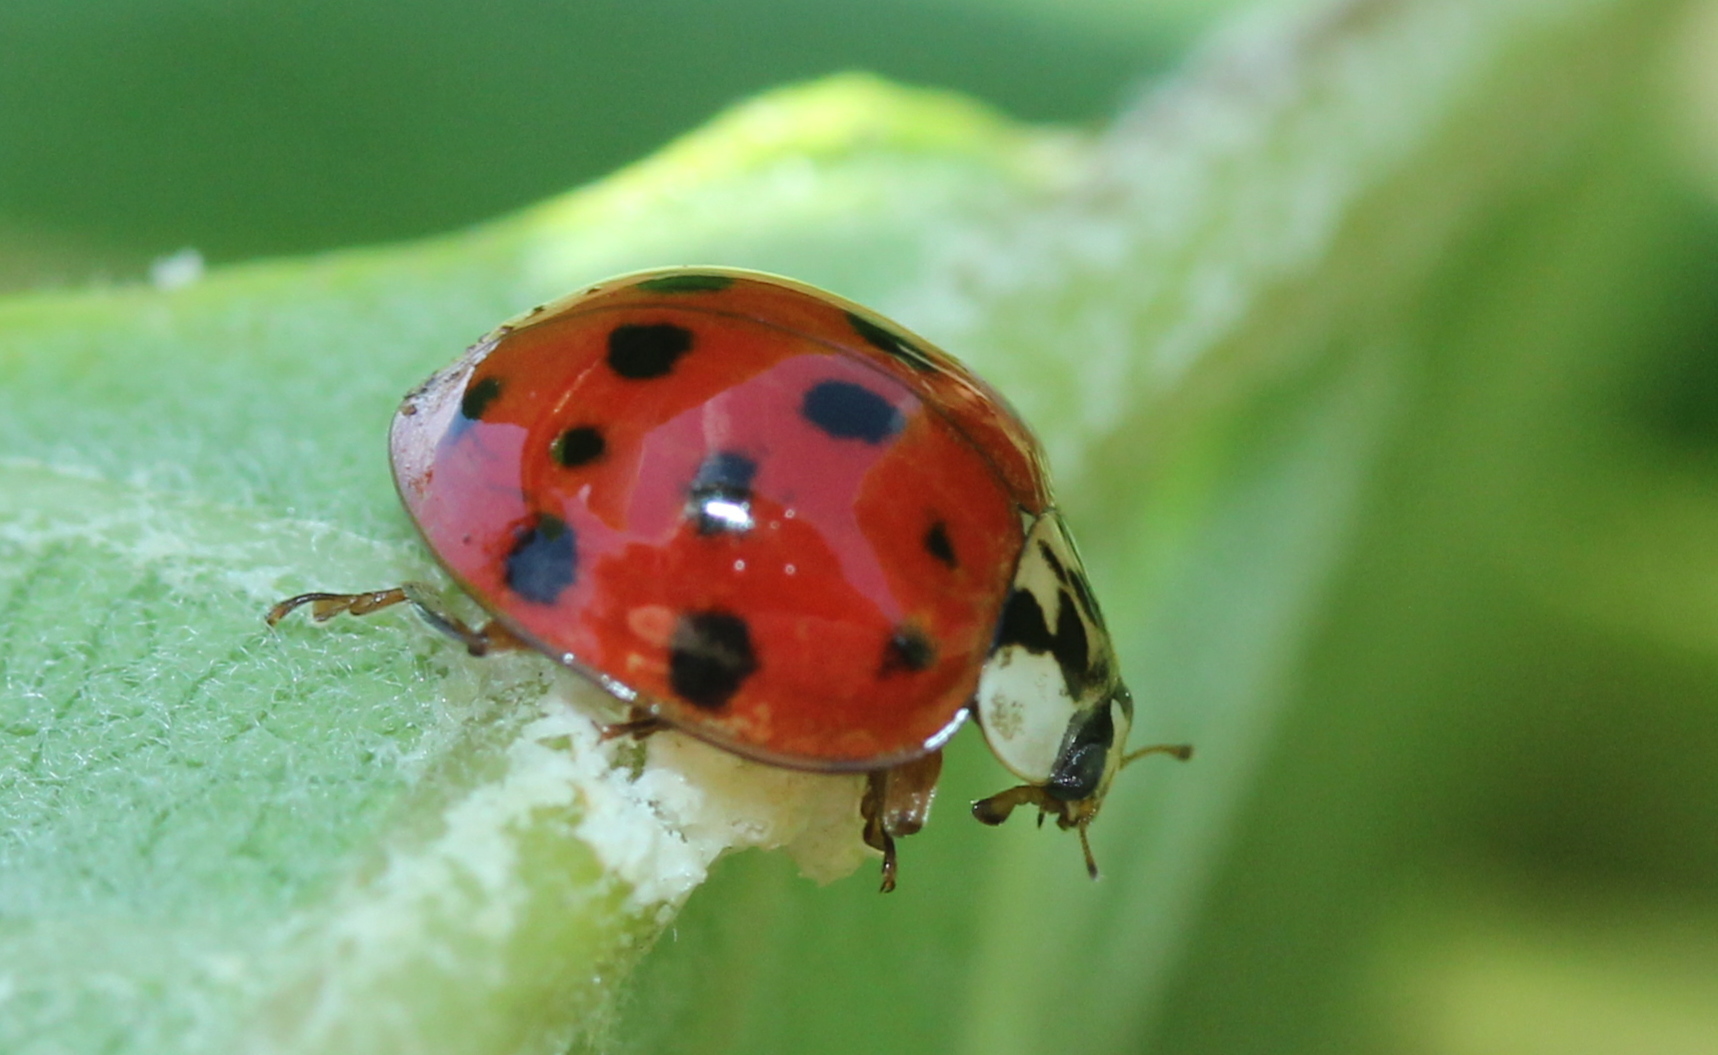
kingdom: Animalia
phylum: Arthropoda
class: Insecta
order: Coleoptera
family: Coccinellidae
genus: Harmonia
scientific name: Harmonia axyridis
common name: Harlequin ladybird
